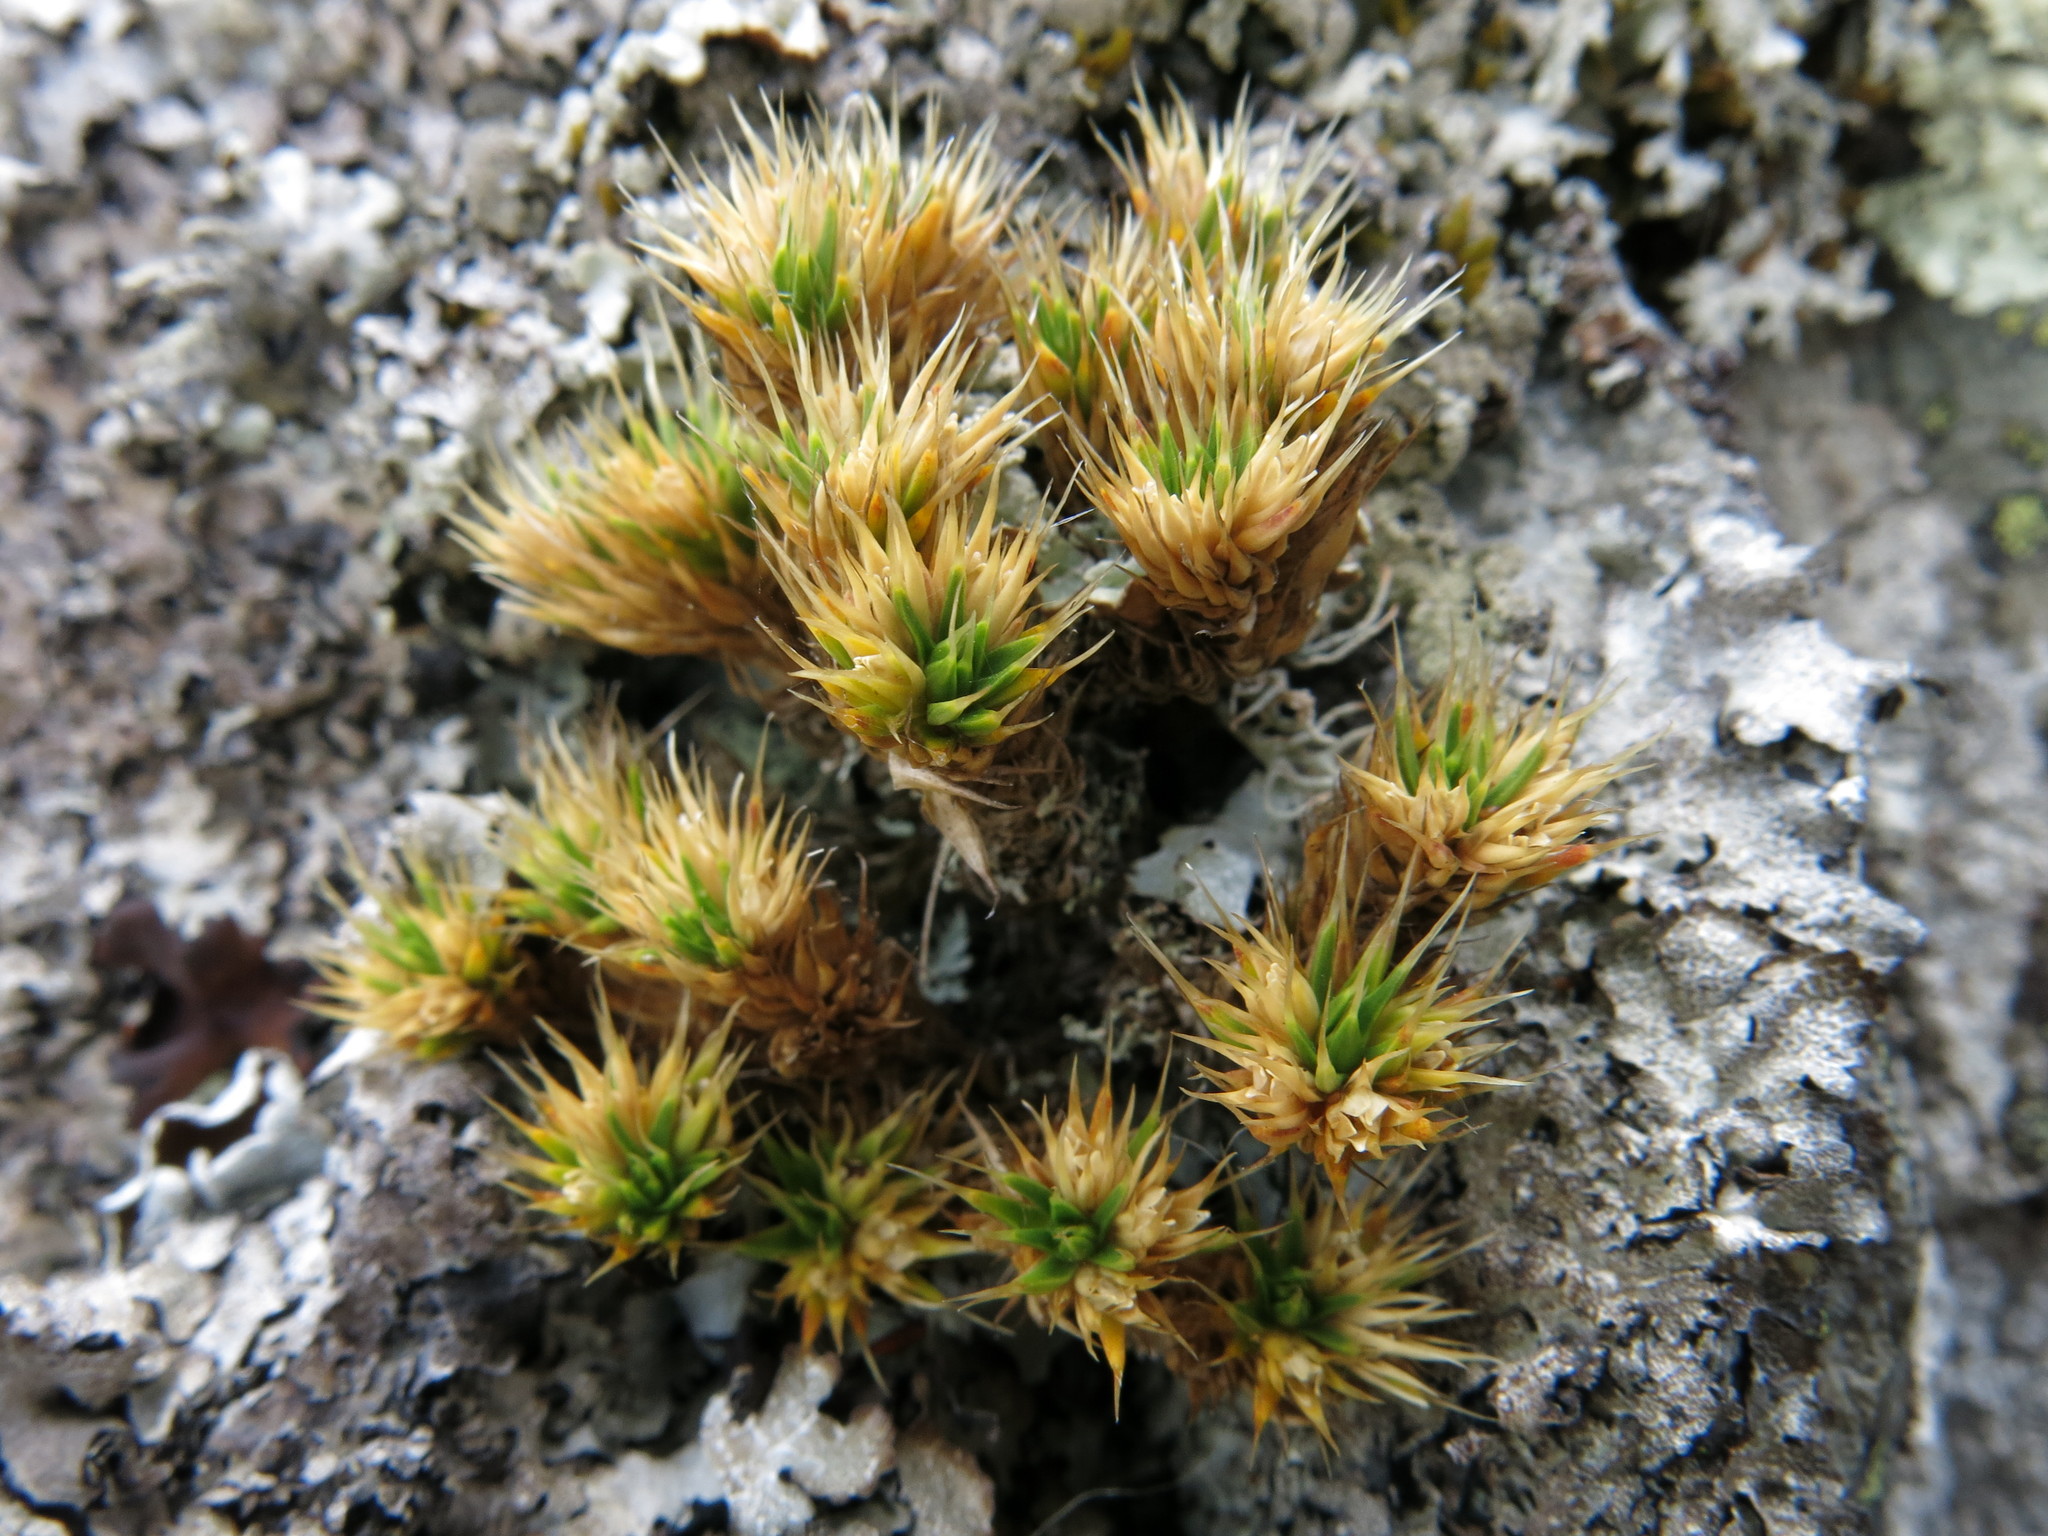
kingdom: Plantae
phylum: Tracheophyta
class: Magnoliopsida
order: Caryophyllales
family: Caryophyllaceae
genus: Colobanthus
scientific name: Colobanthus acicularis
